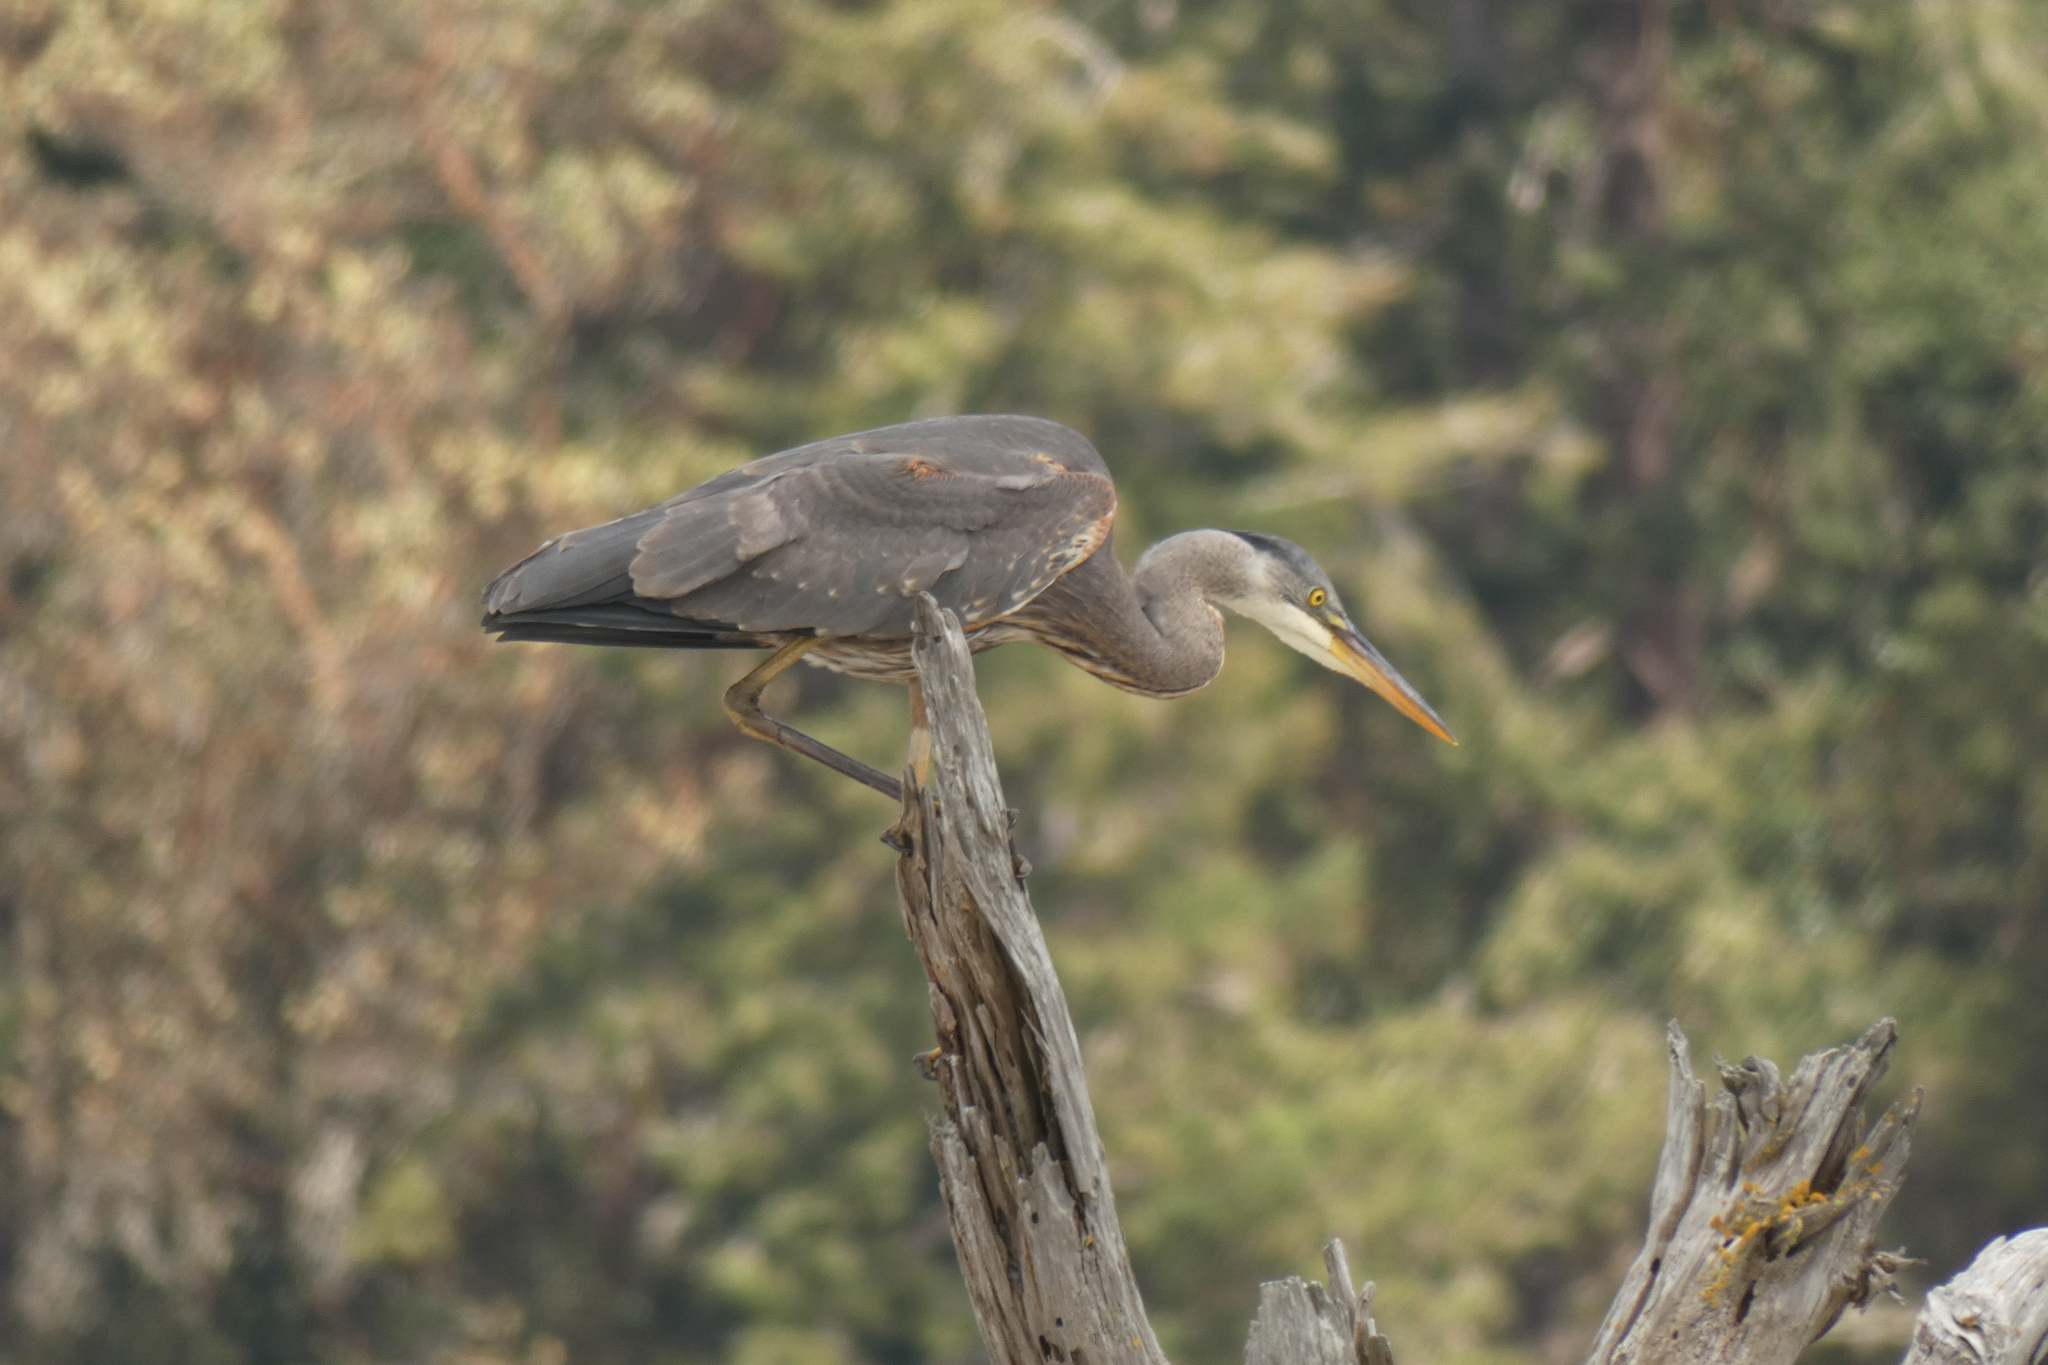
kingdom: Animalia
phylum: Chordata
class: Aves
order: Pelecaniformes
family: Ardeidae
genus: Ardea
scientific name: Ardea herodias
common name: Great blue heron
